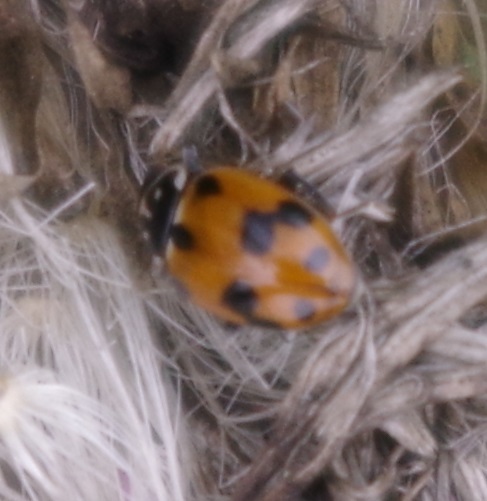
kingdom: Animalia
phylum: Arthropoda
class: Insecta
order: Coleoptera
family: Coccinellidae
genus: Hippodamia
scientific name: Hippodamia variegata
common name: Ladybird beetle
